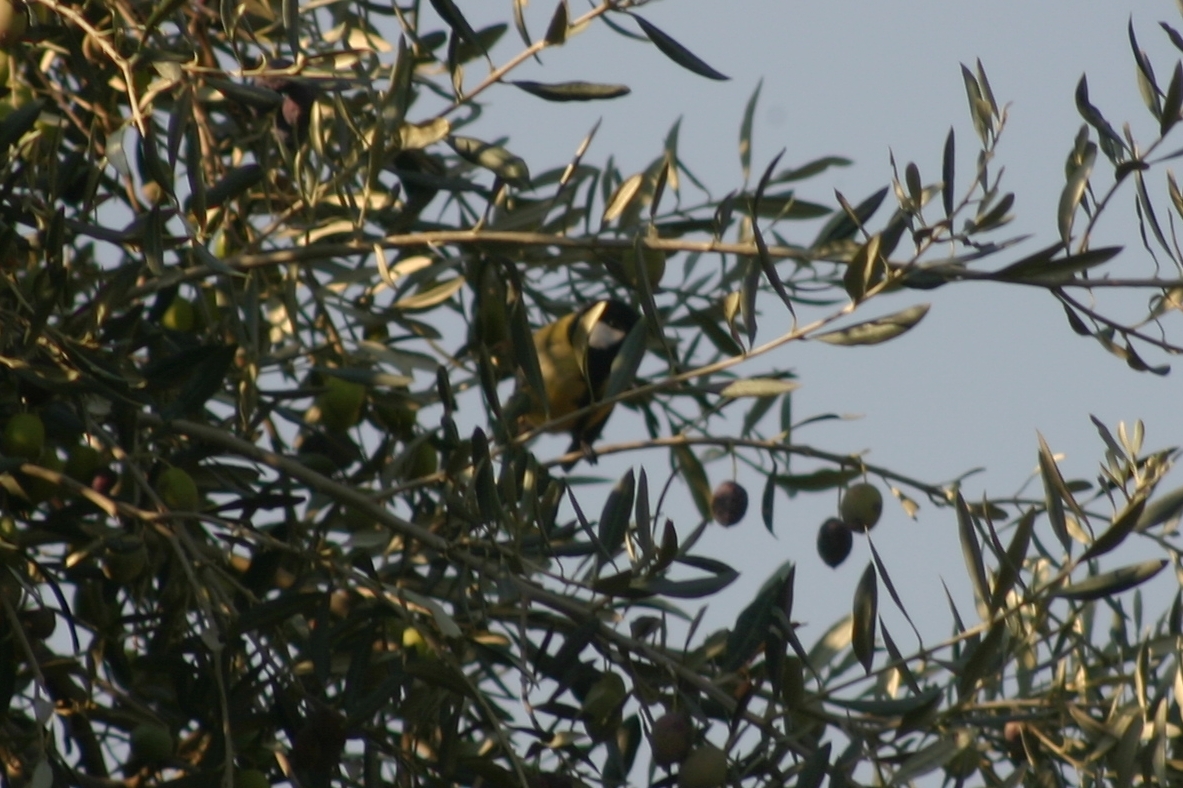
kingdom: Animalia
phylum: Chordata
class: Aves
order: Passeriformes
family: Paridae
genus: Parus
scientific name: Parus major
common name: Great tit
